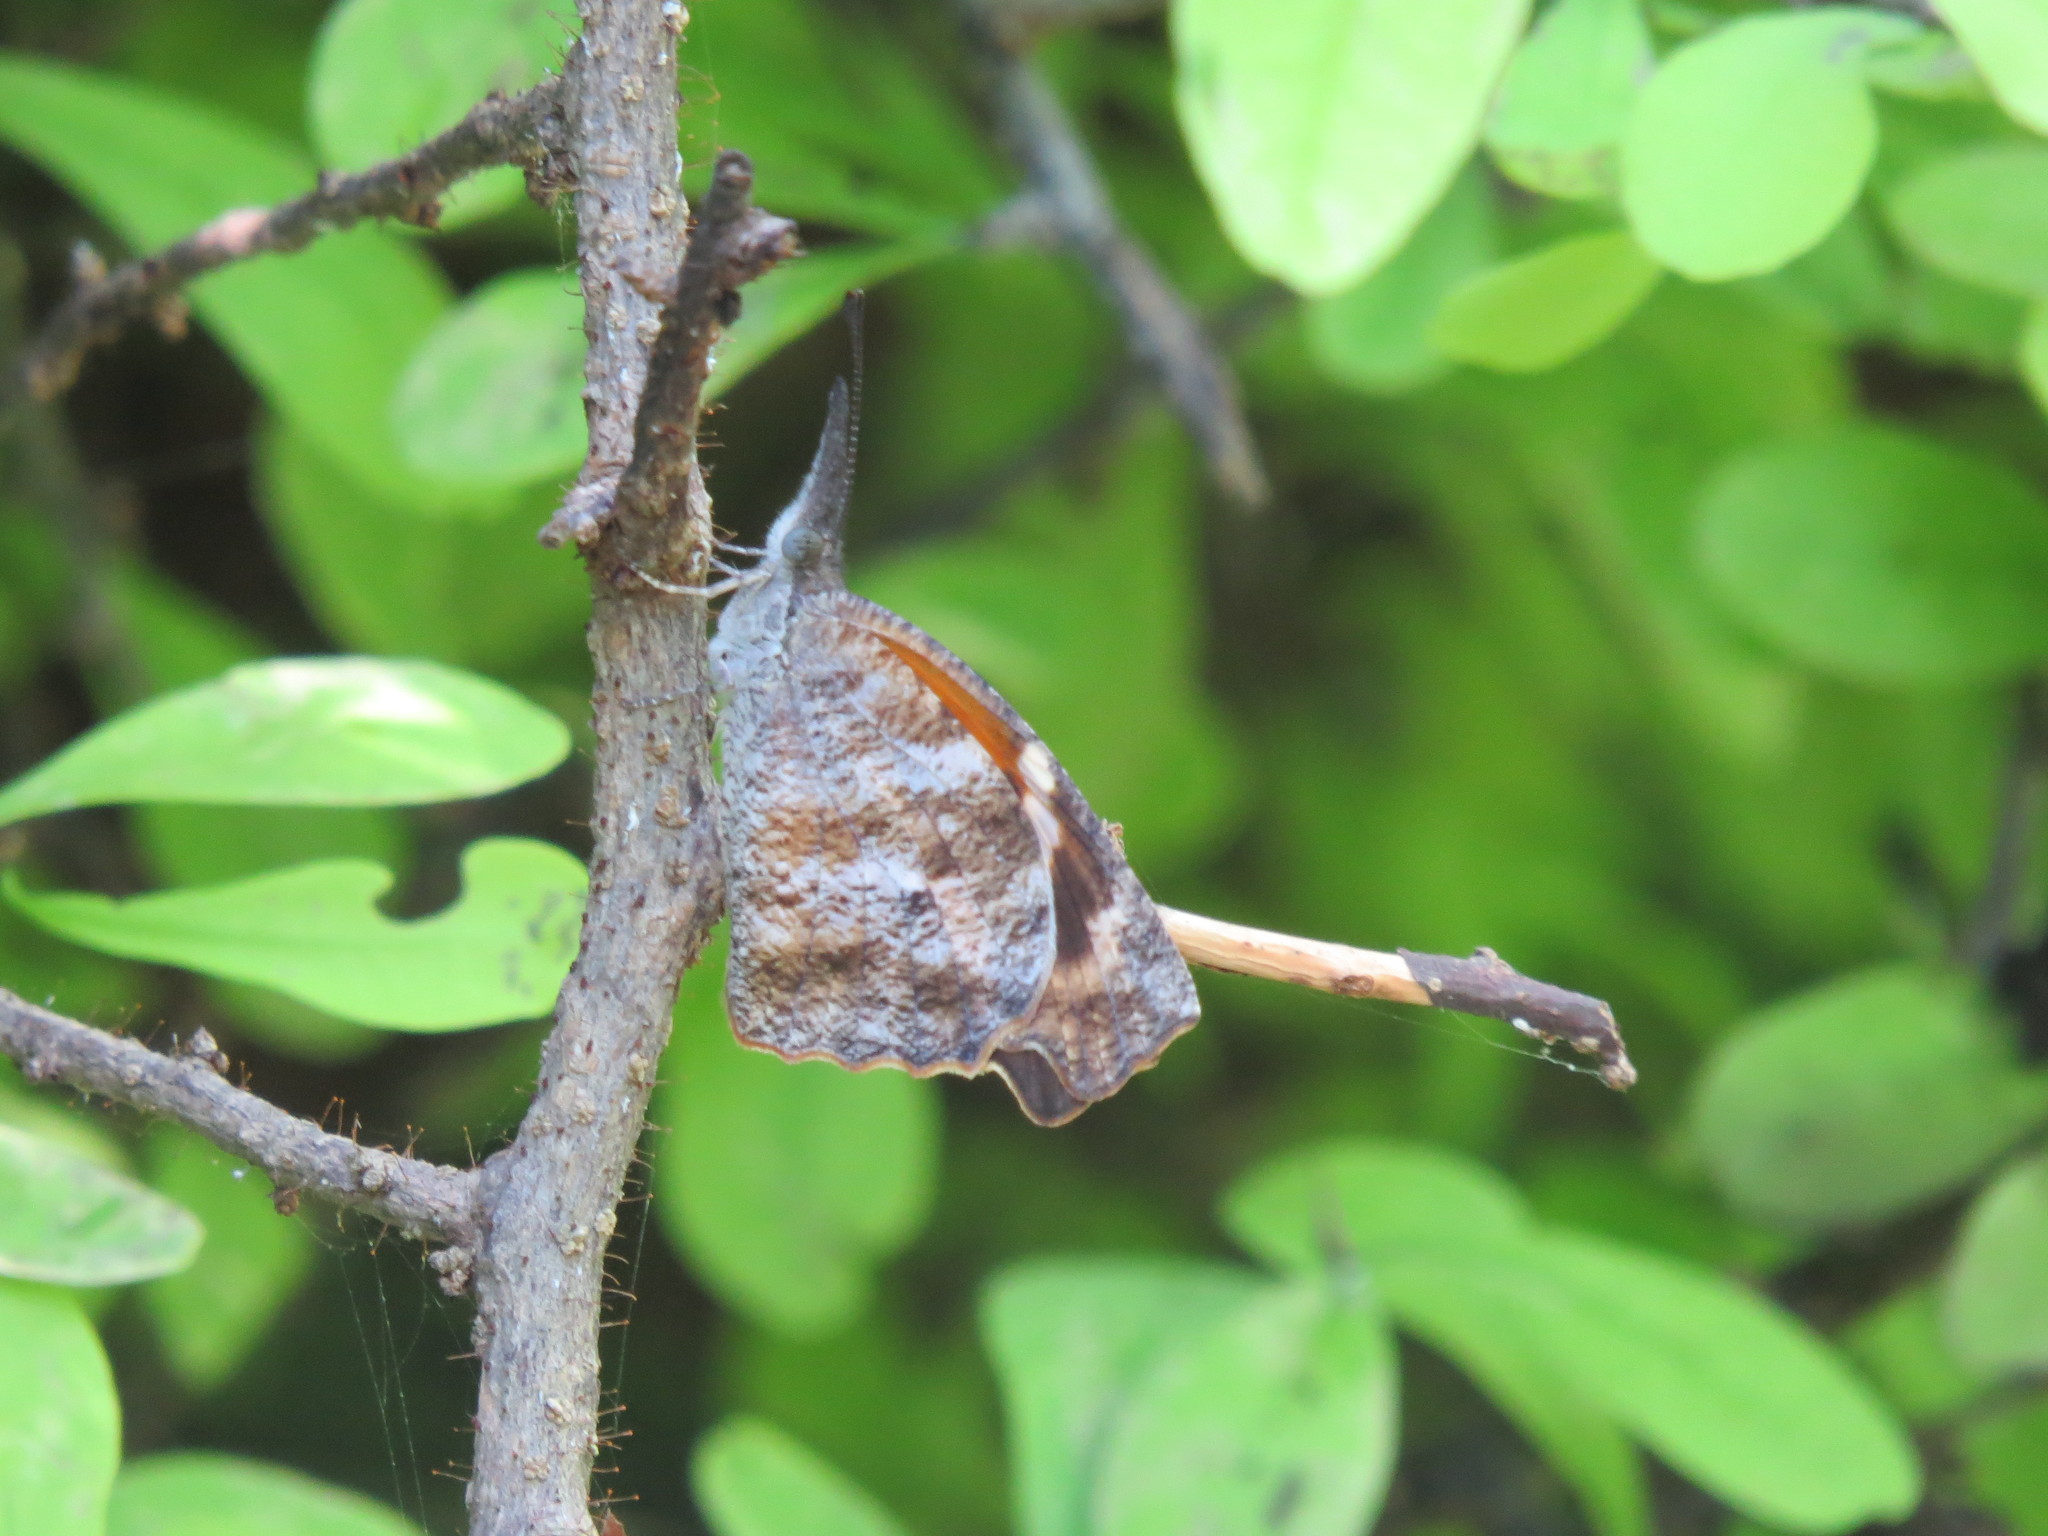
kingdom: Animalia
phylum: Arthropoda
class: Insecta
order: Lepidoptera
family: Nymphalidae
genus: Libytheana
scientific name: Libytheana carinenta
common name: American snout
